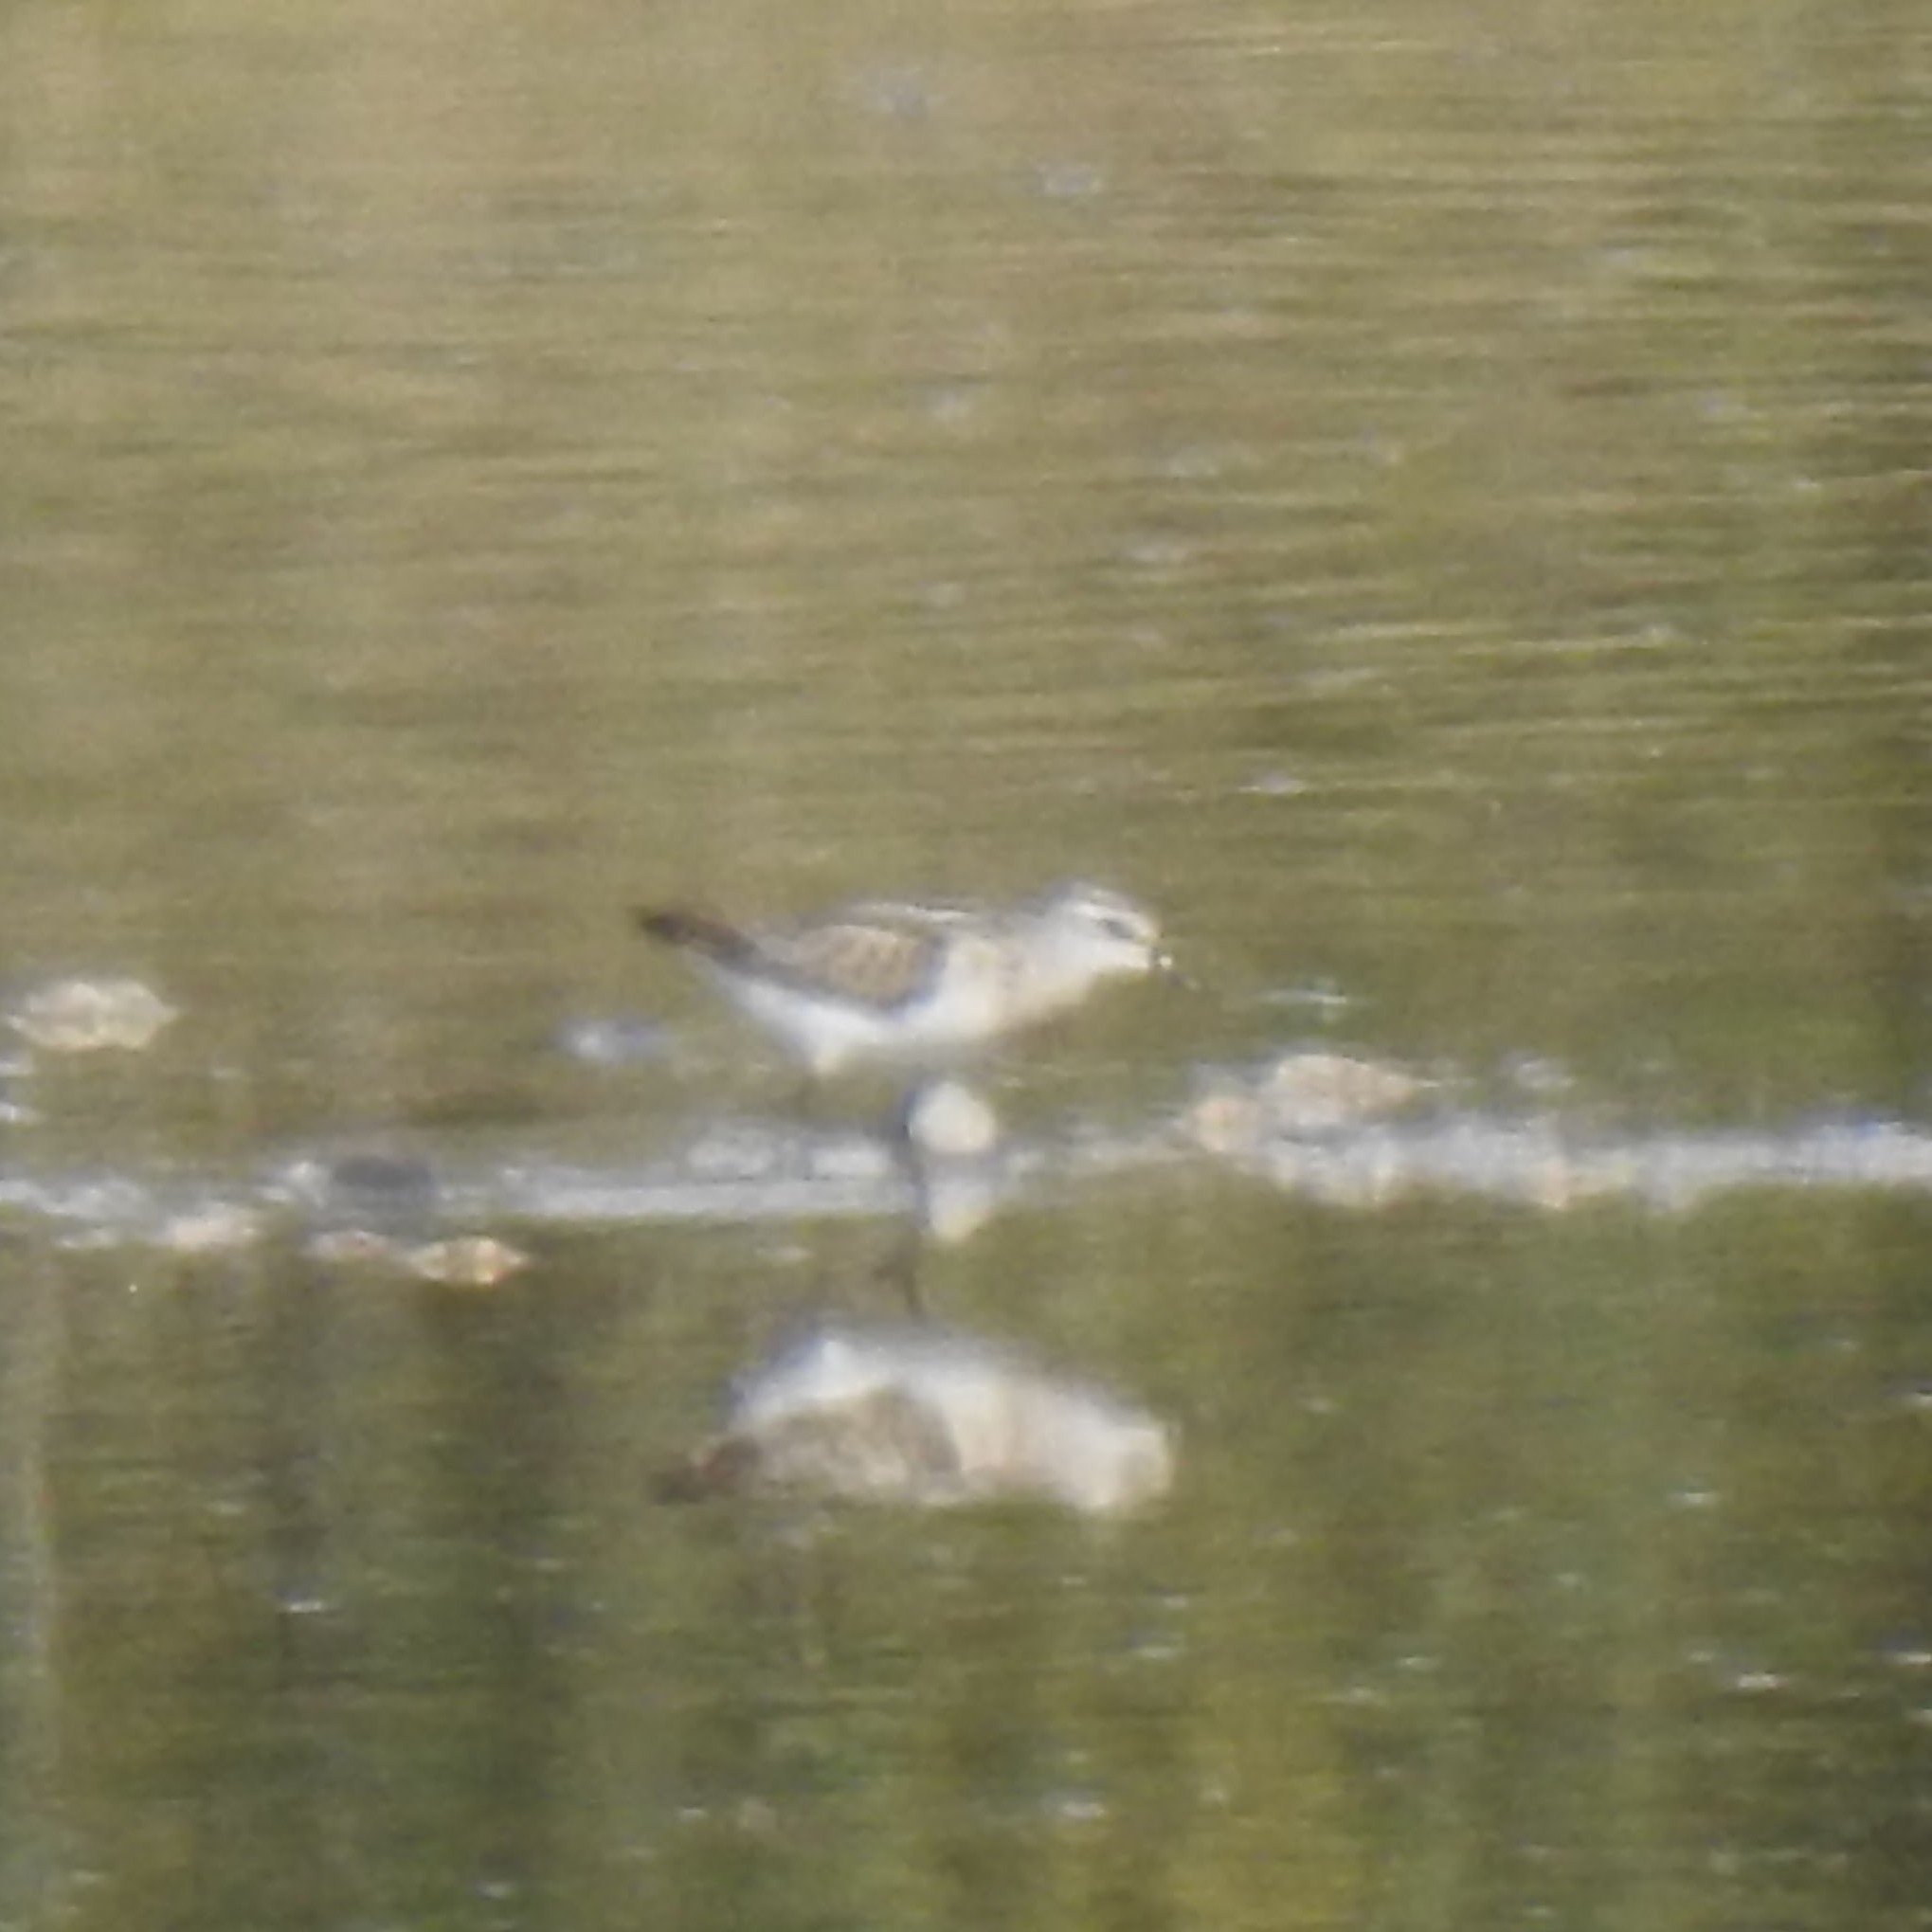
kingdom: Animalia
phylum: Chordata
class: Aves
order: Charadriiformes
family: Scolopacidae
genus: Calidris
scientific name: Calidris minuta
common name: Little stint
